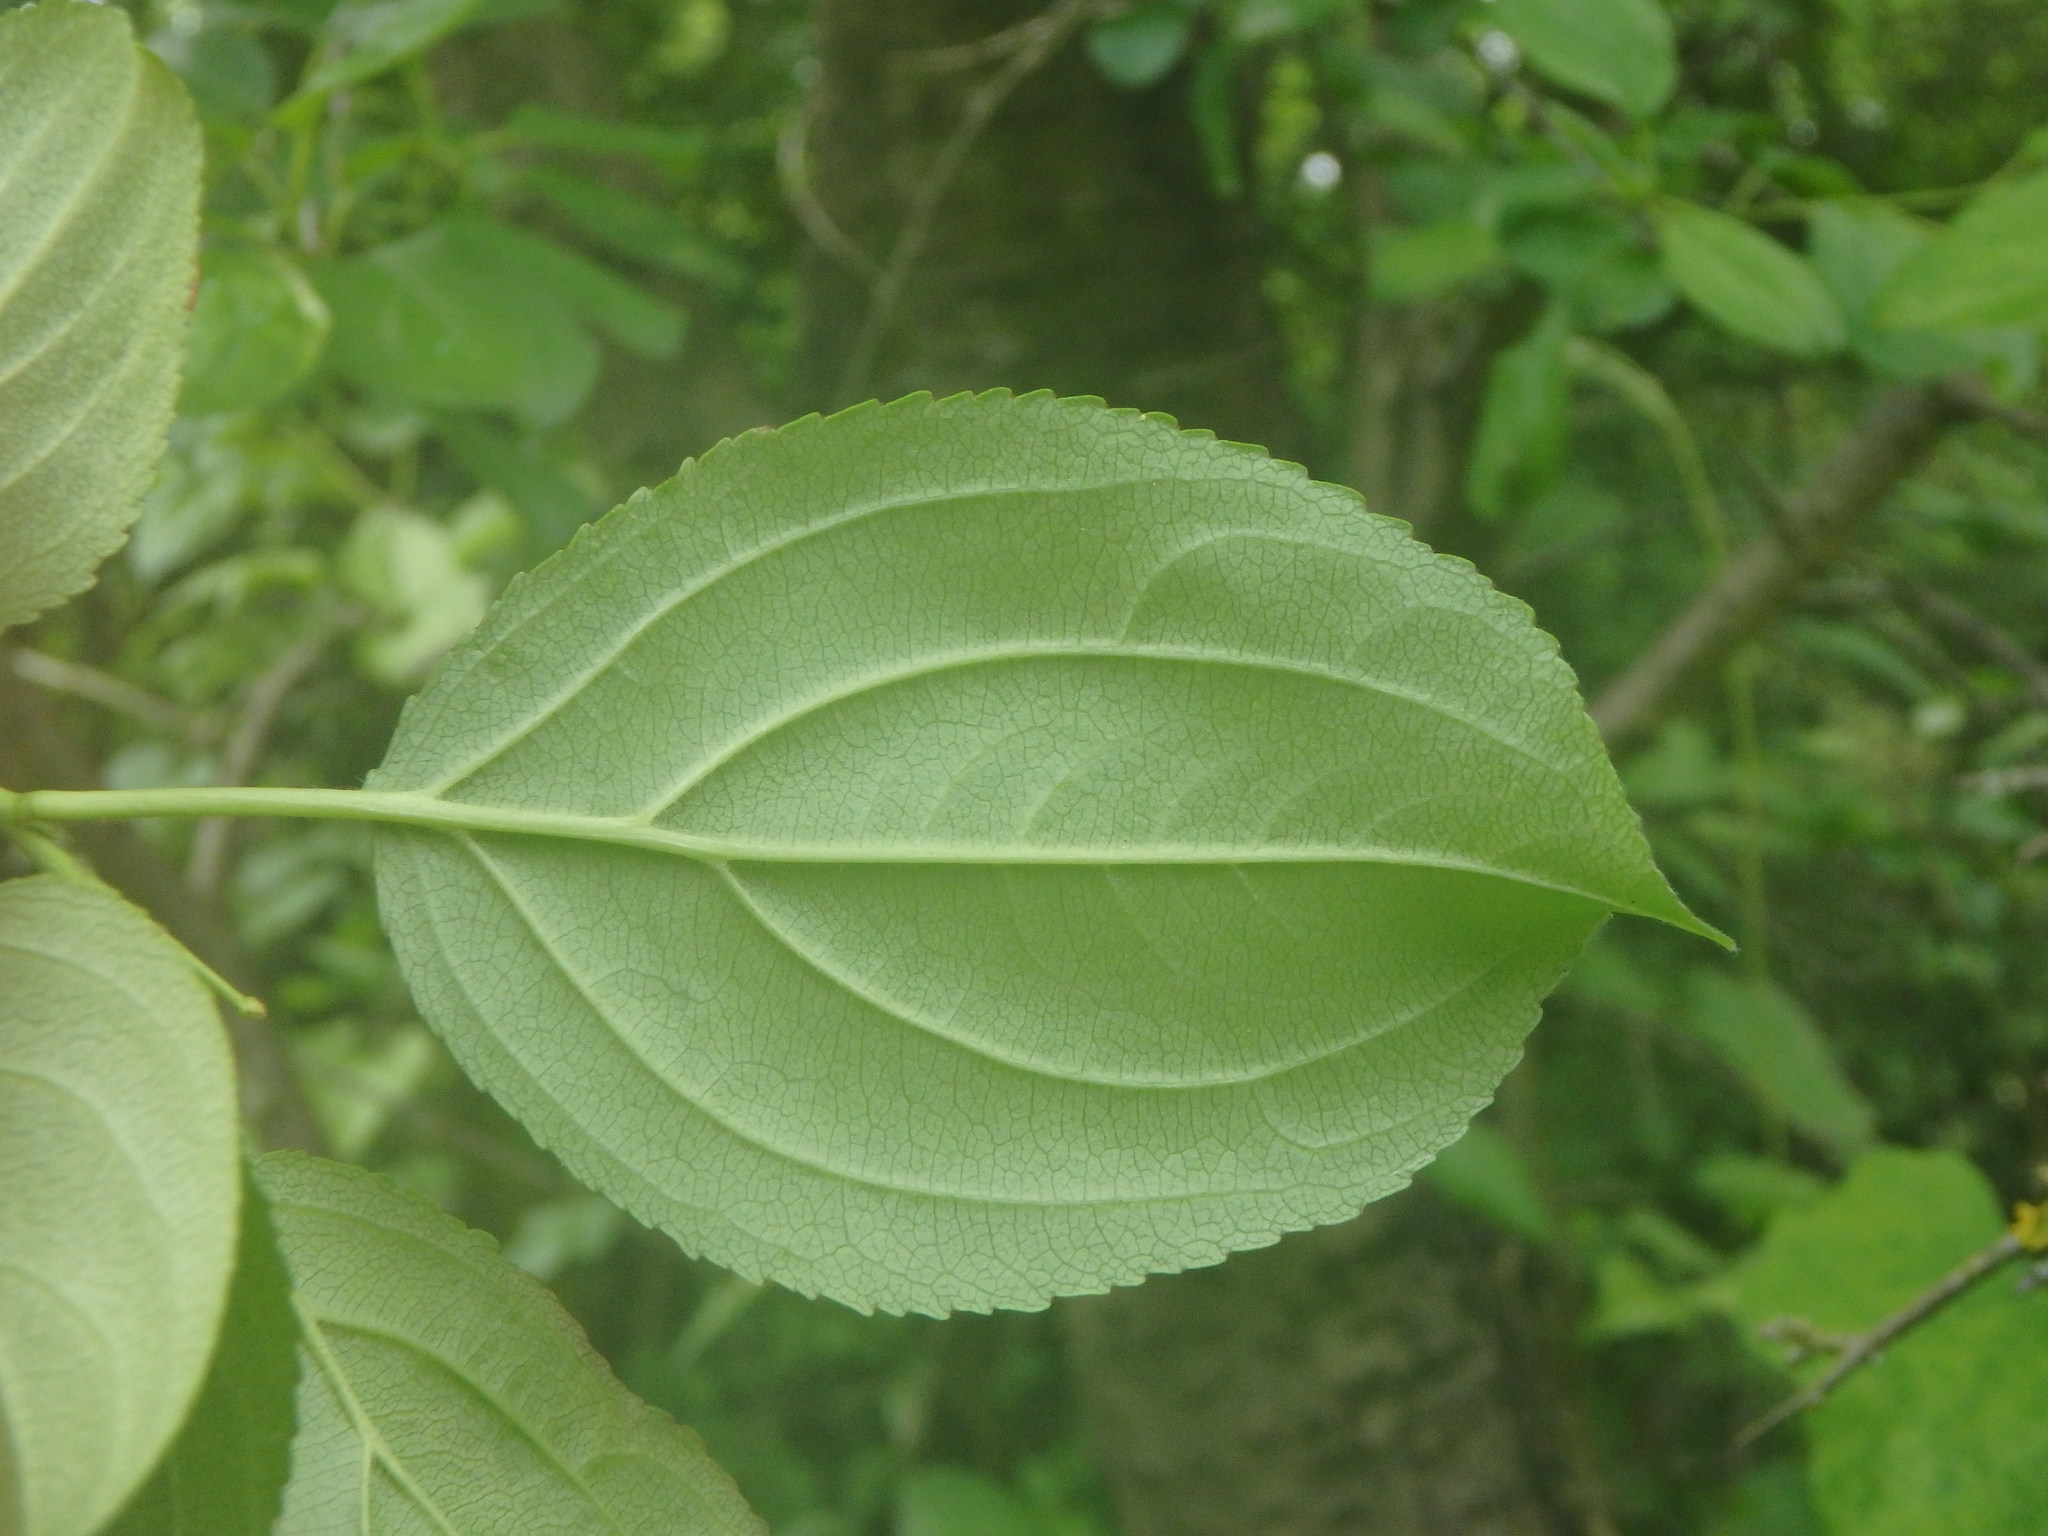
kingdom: Plantae
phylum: Tracheophyta
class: Magnoliopsida
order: Rosales
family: Rhamnaceae
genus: Rhamnus
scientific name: Rhamnus cathartica
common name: Common buckthorn
